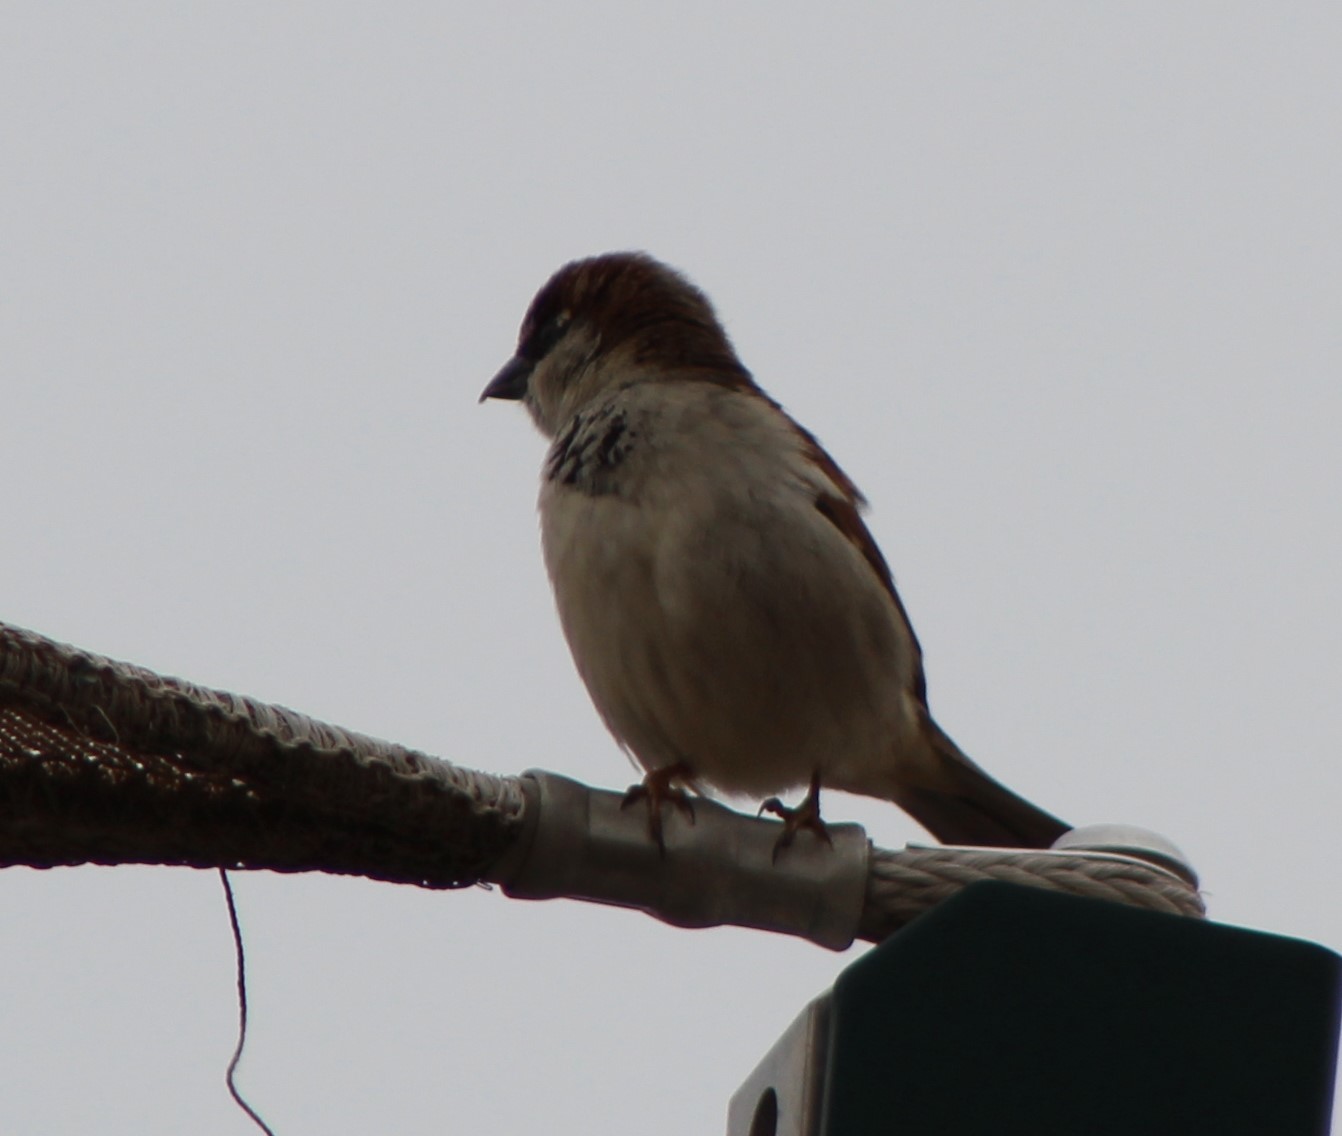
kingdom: Animalia
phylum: Chordata
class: Aves
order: Passeriformes
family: Passeridae
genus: Passer
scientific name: Passer domesticus
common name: House sparrow
